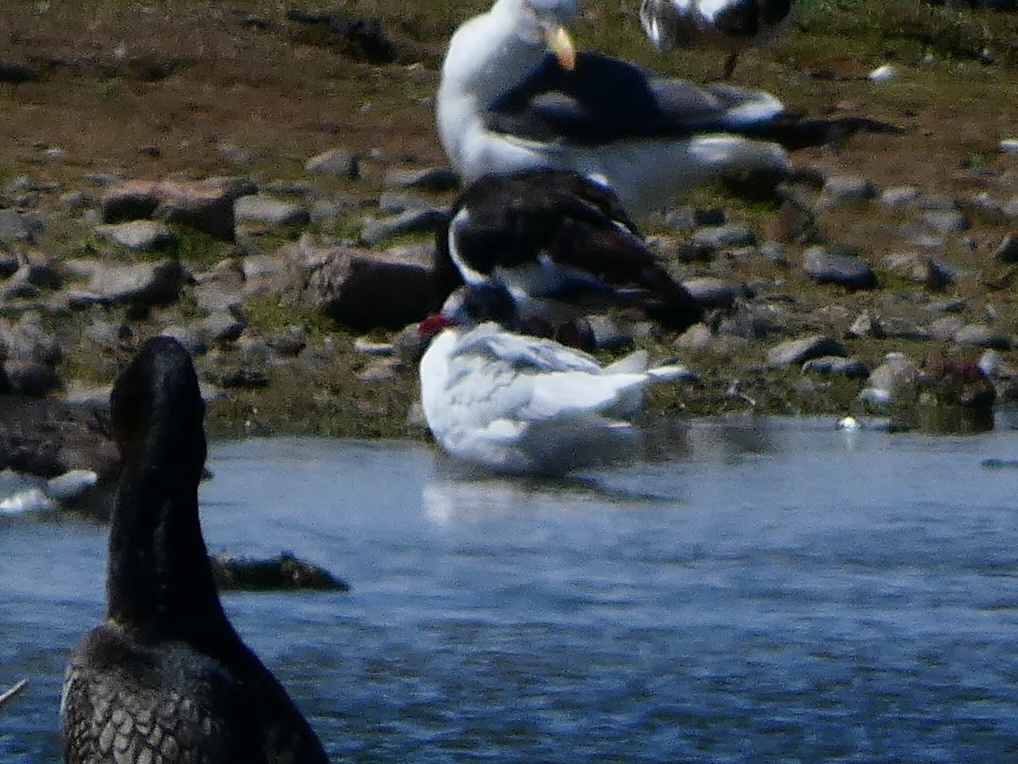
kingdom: Animalia
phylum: Chordata
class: Aves
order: Charadriiformes
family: Laridae
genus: Ichthyaetus
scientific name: Ichthyaetus melanocephalus
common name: Mediterranean gull
